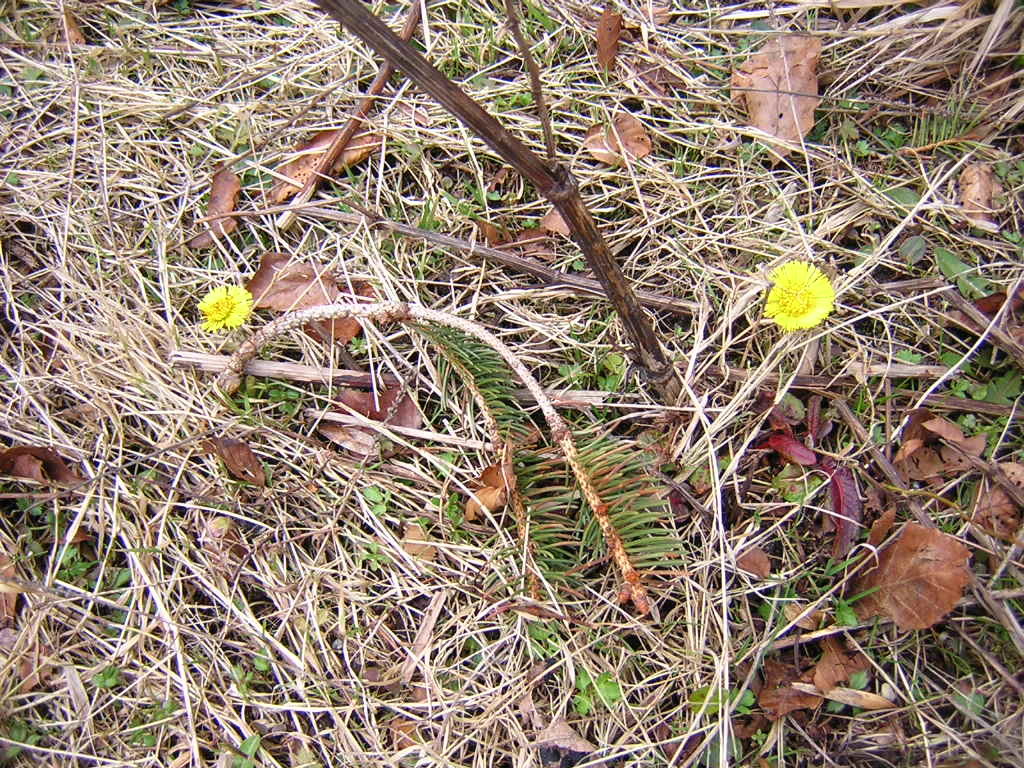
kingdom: Plantae
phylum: Tracheophyta
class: Magnoliopsida
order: Asterales
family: Asteraceae
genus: Tussilago
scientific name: Tussilago farfara
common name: Coltsfoot
